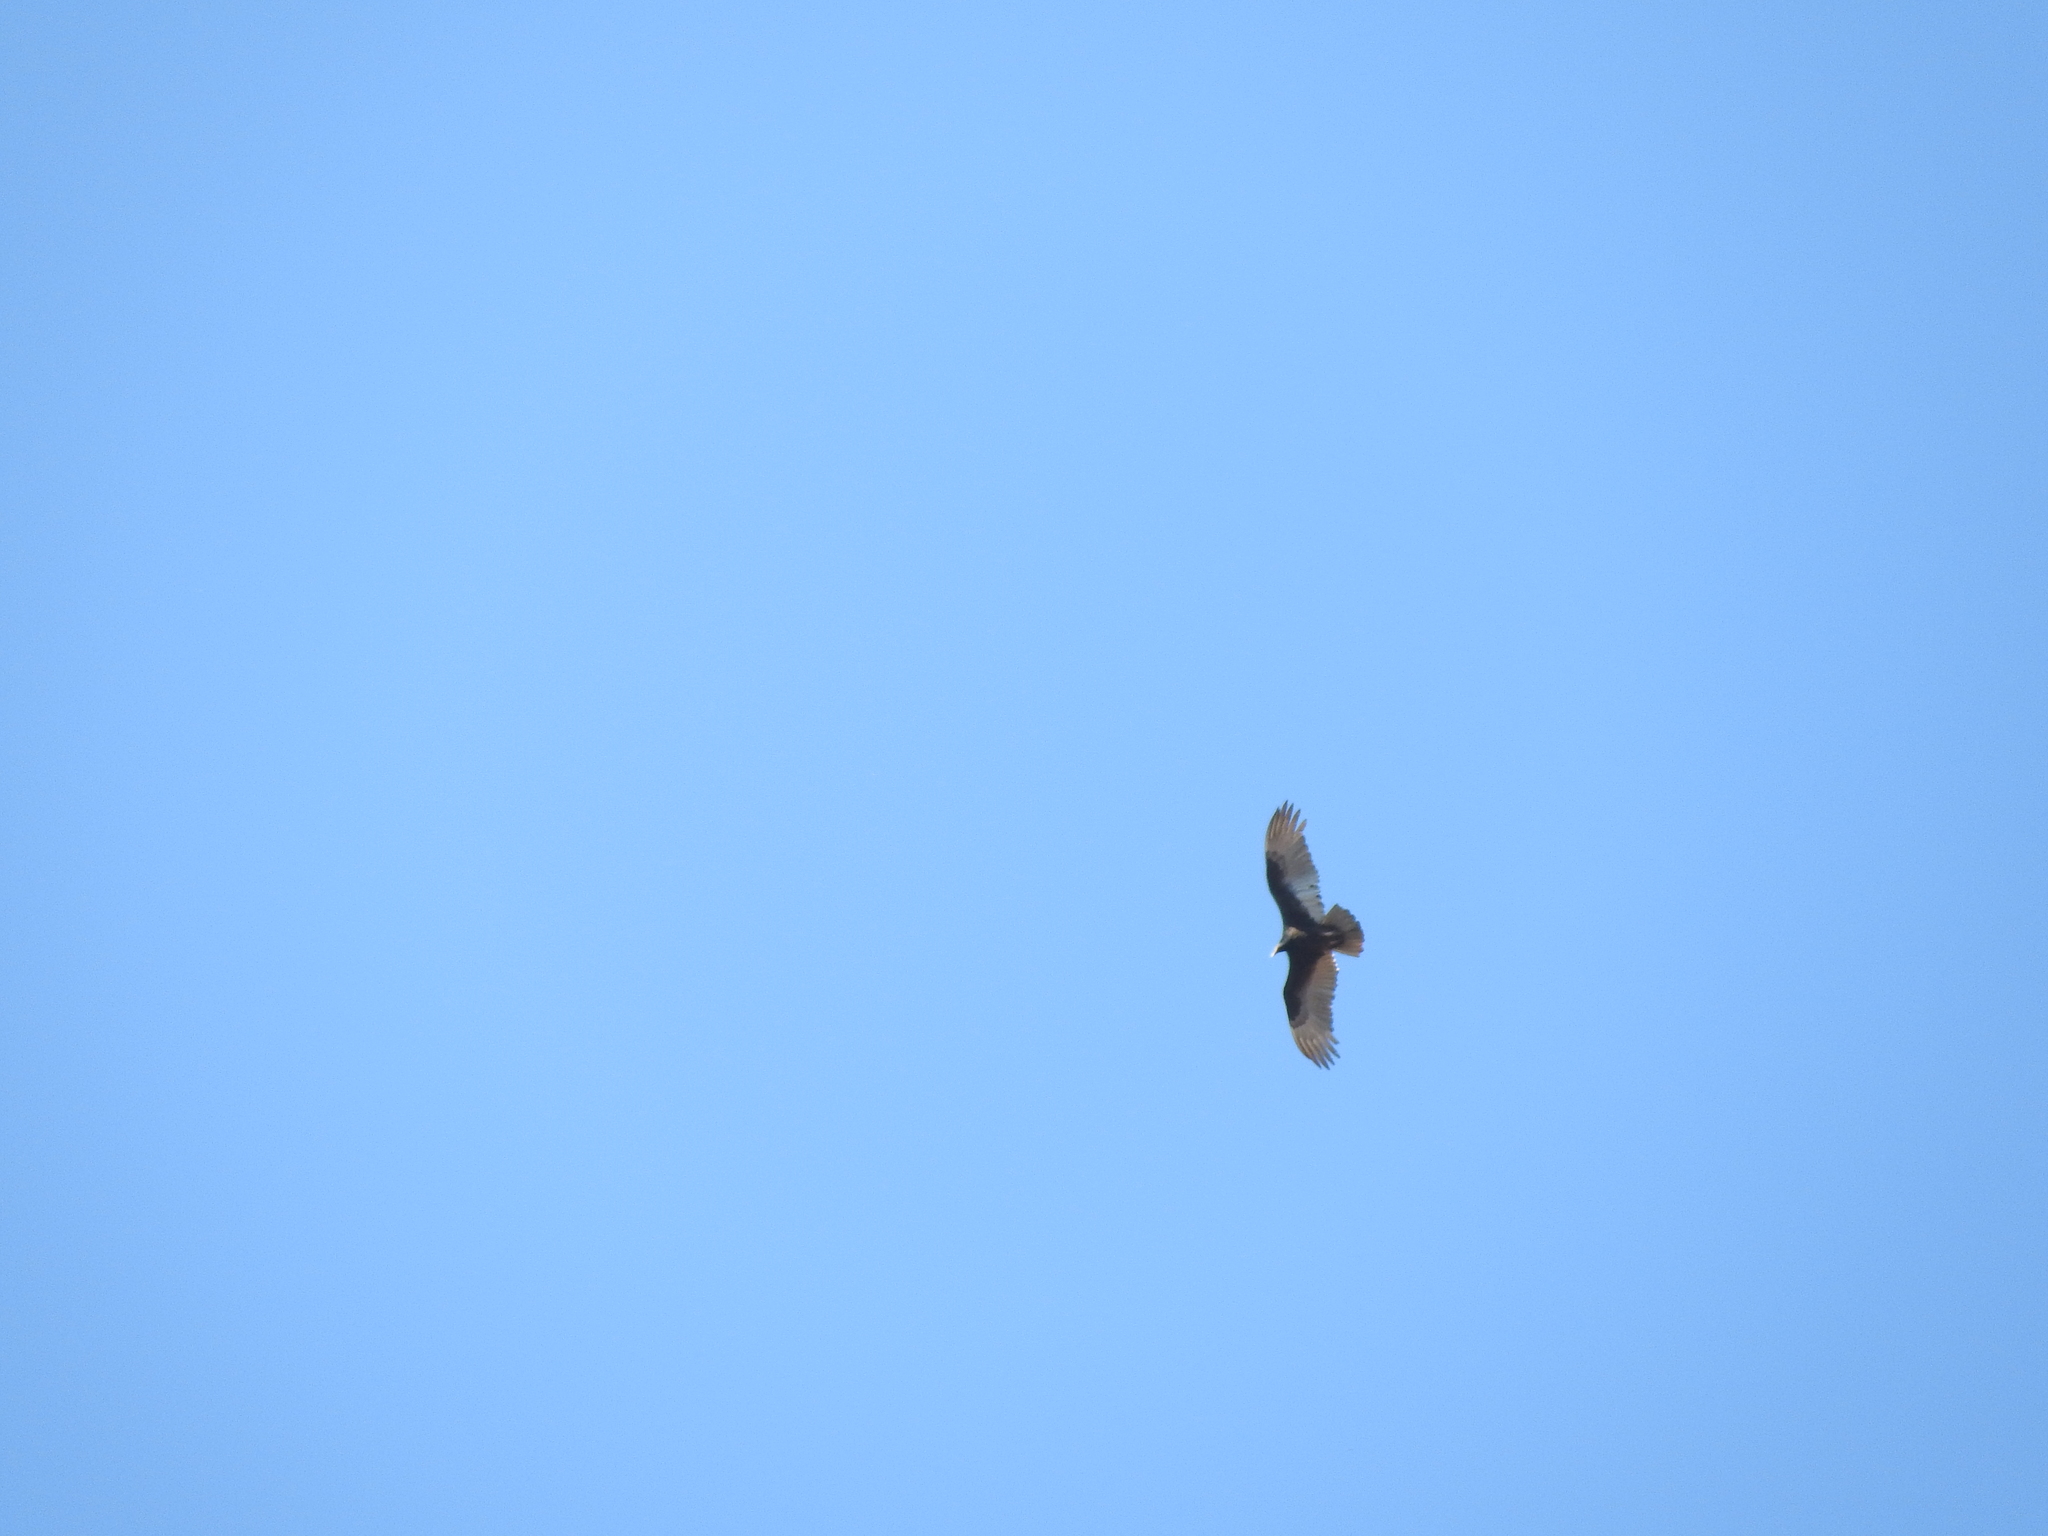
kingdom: Animalia
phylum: Chordata
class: Aves
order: Accipitriformes
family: Cathartidae
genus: Cathartes
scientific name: Cathartes aura
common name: Turkey vulture
